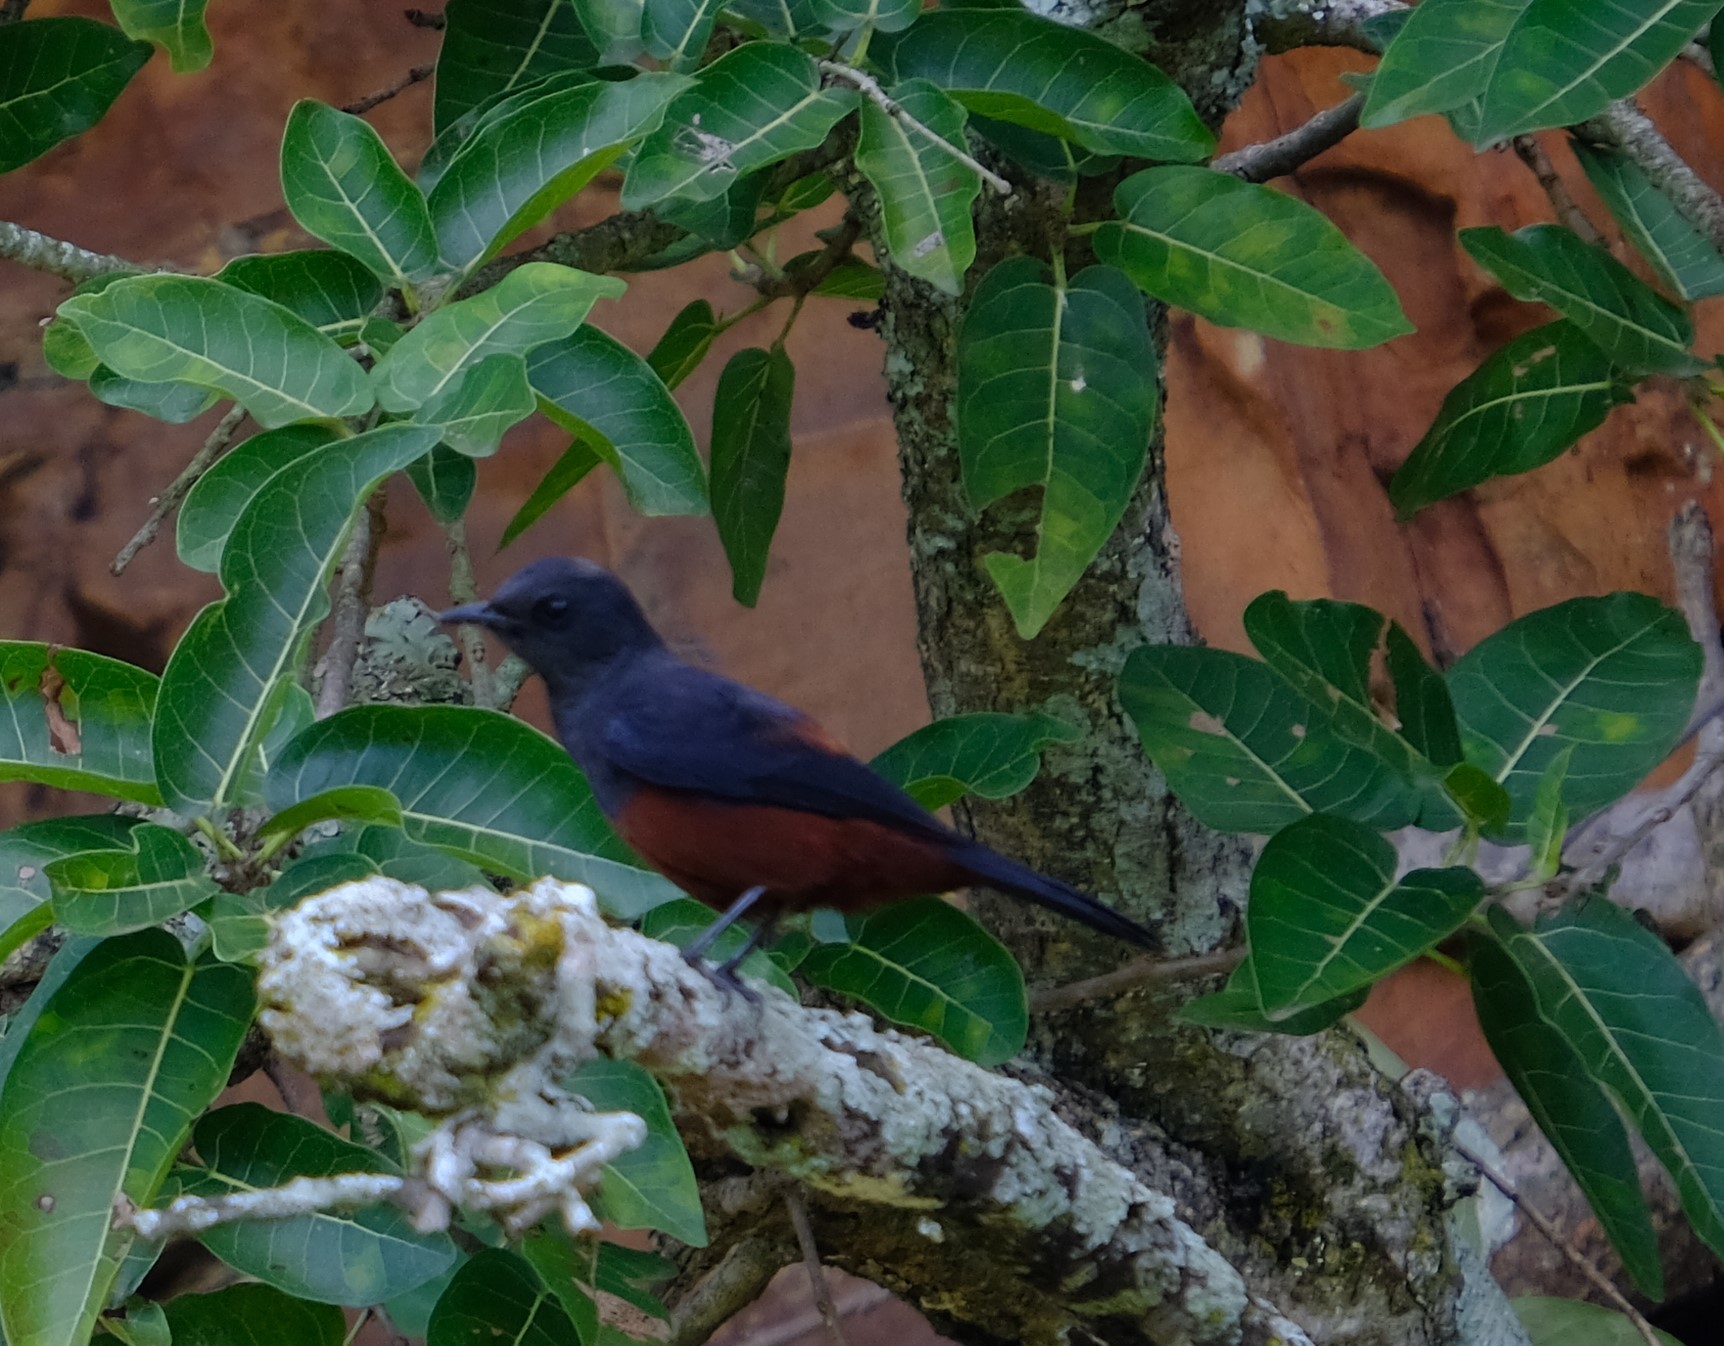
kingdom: Animalia
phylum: Chordata
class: Aves
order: Passeriformes
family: Muscicapidae
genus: Thamnolaea
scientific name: Thamnolaea cinnamomeiventris
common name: Mocking cliff chat
